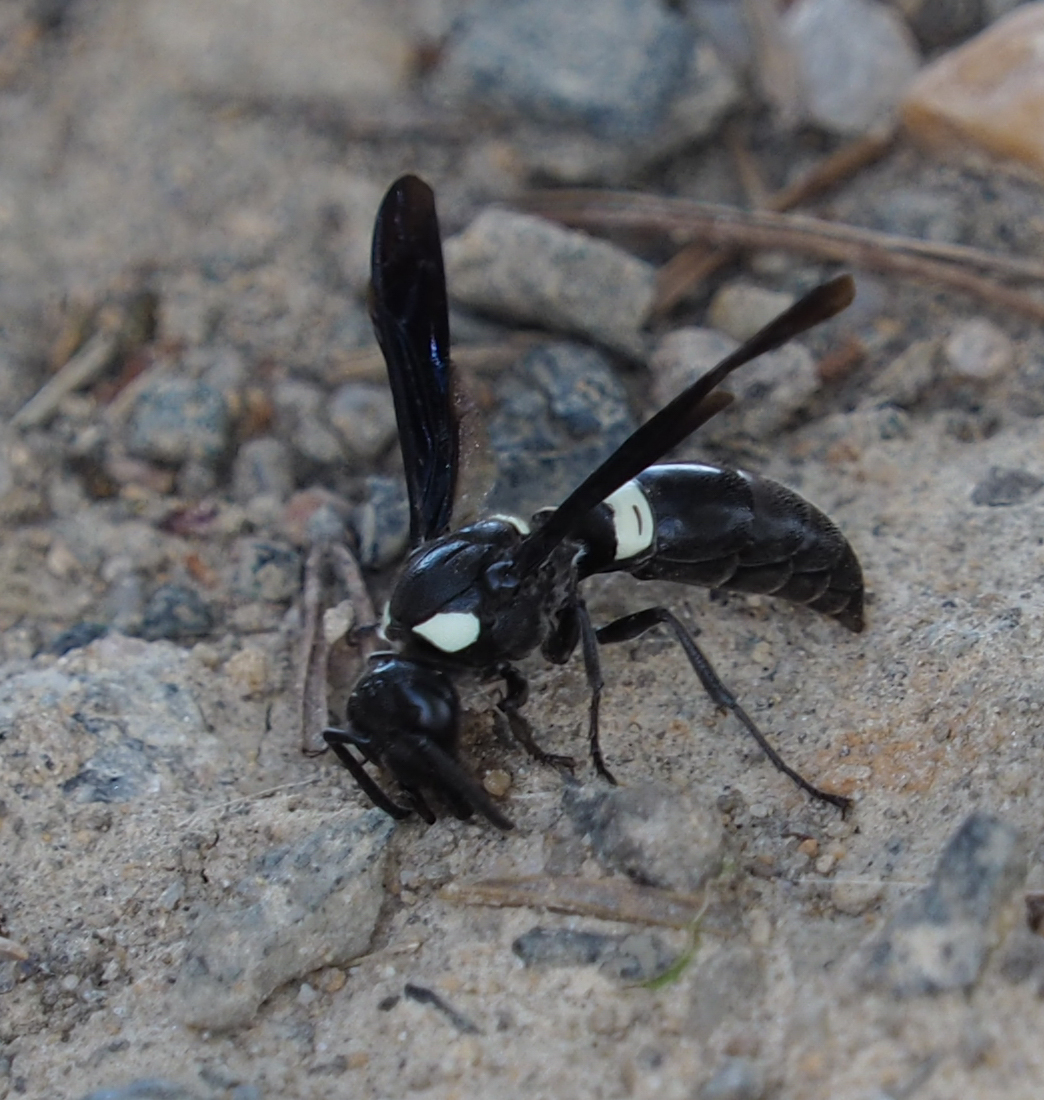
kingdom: Animalia
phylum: Arthropoda
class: Insecta
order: Hymenoptera
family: Eumenidae
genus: Monobia
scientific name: Monobia quadridens
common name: Four-toothed mason wasp
